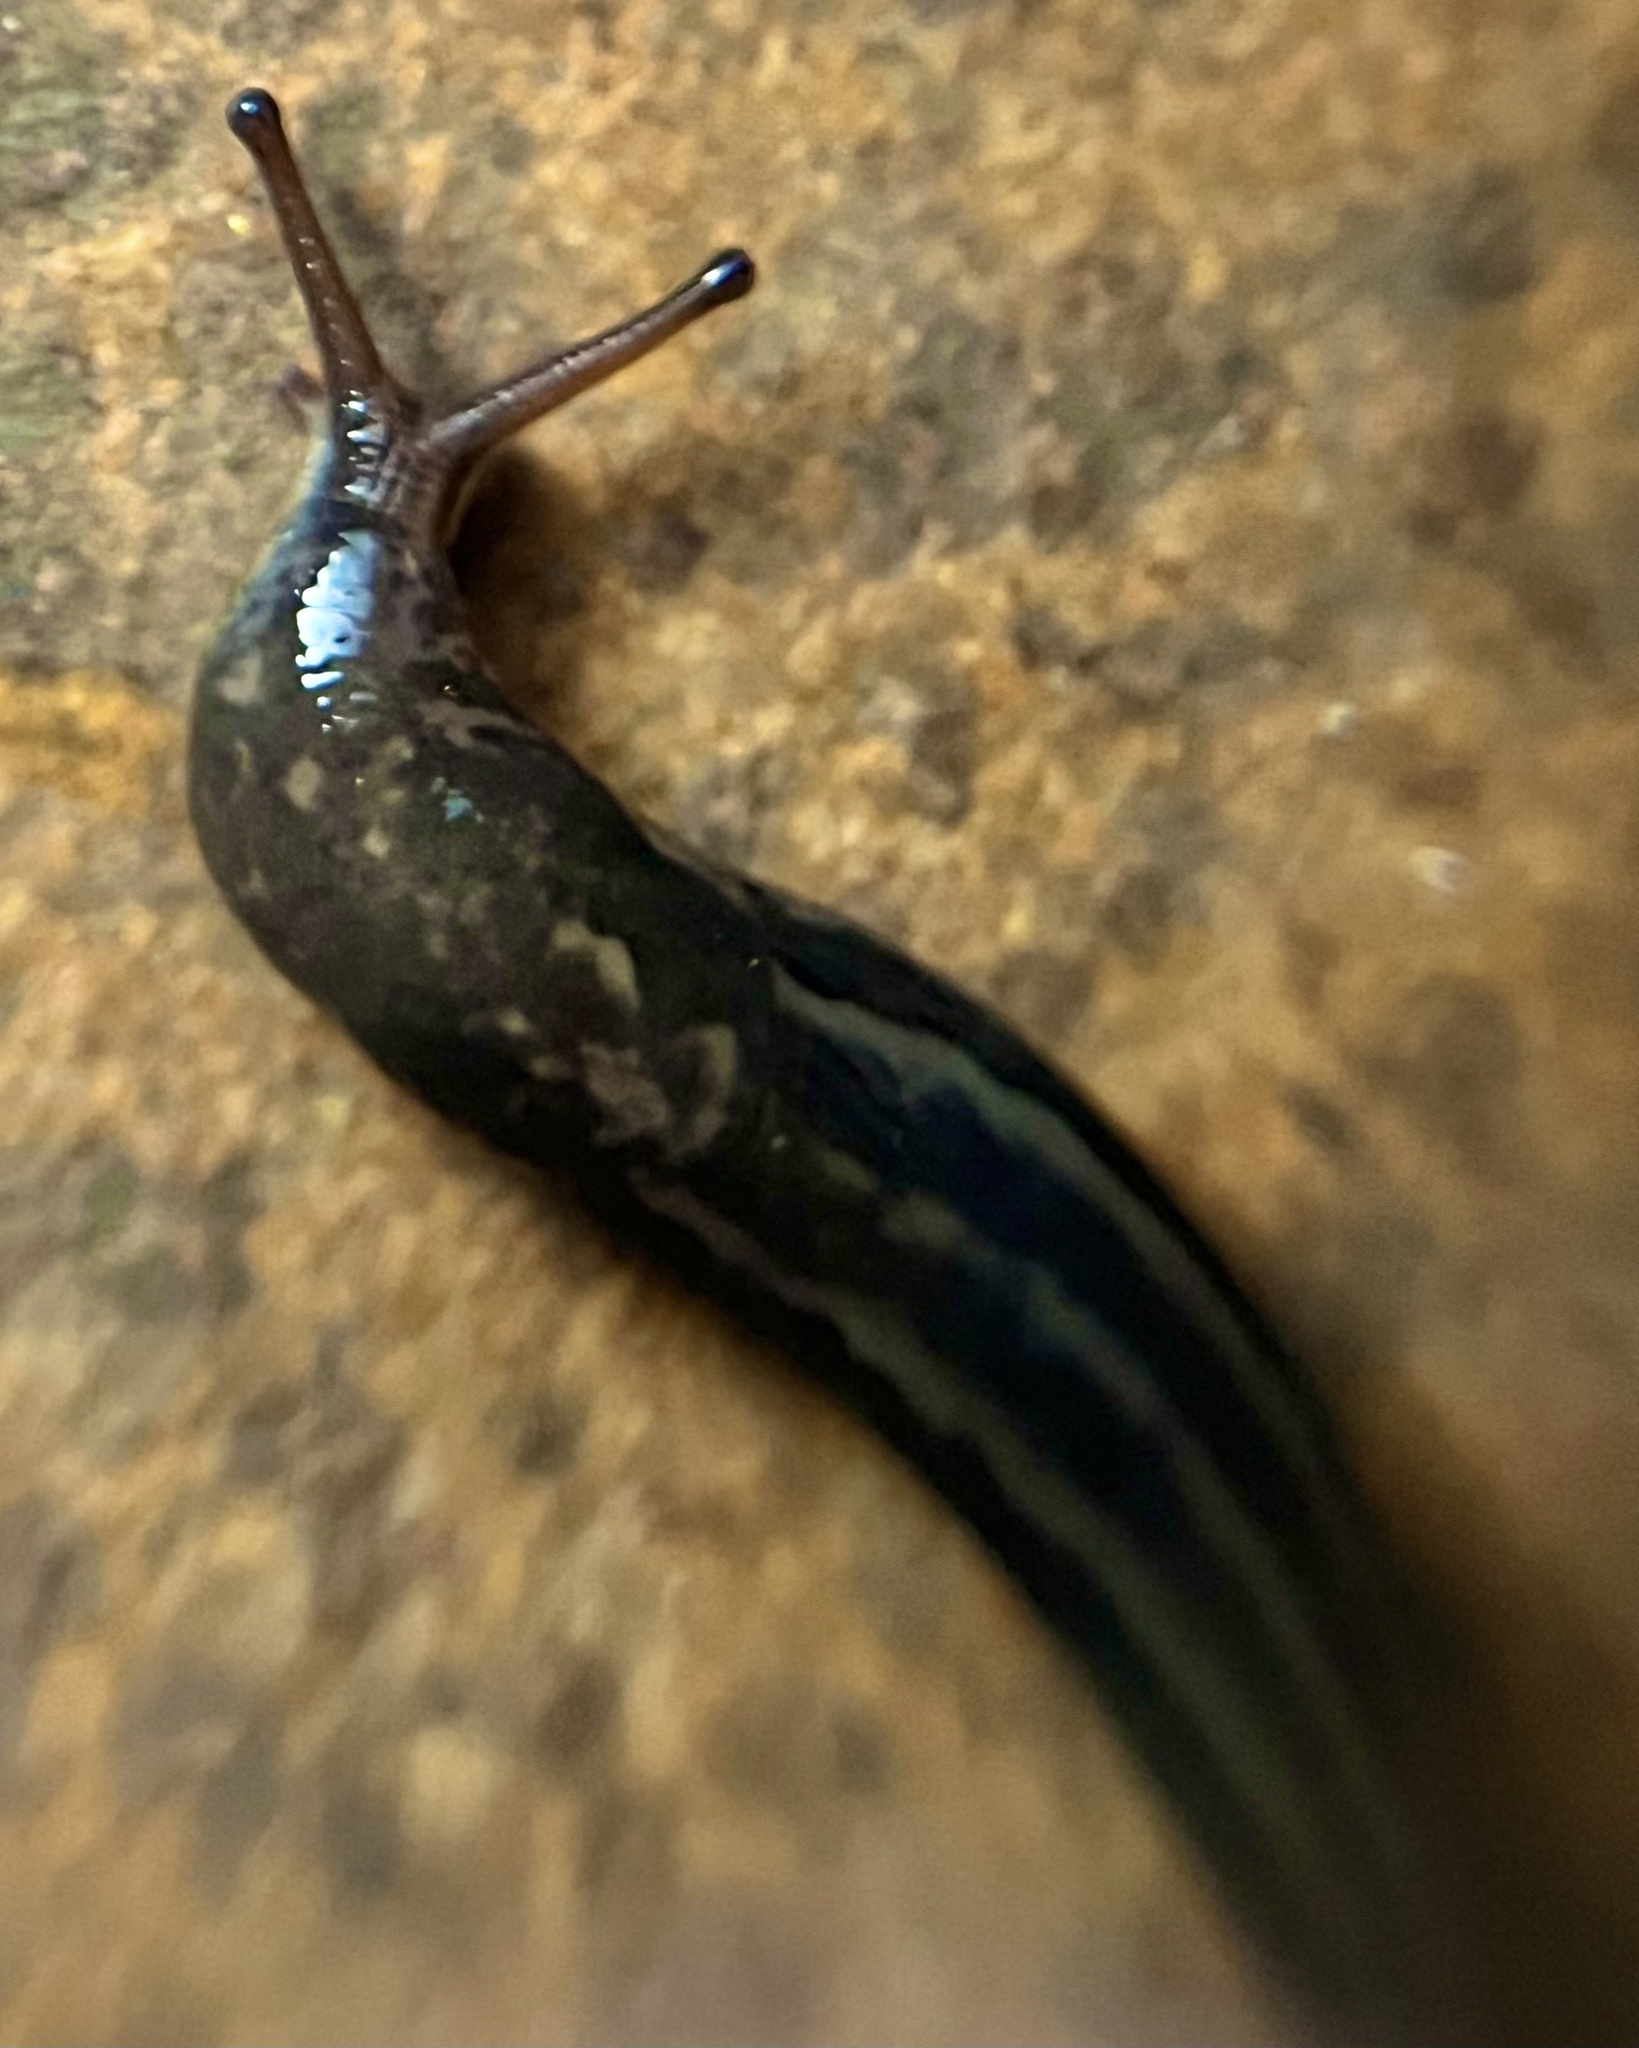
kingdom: Animalia
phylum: Mollusca
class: Gastropoda
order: Stylommatophora
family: Limacidae
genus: Limax
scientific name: Limax maximus
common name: Great grey slug
